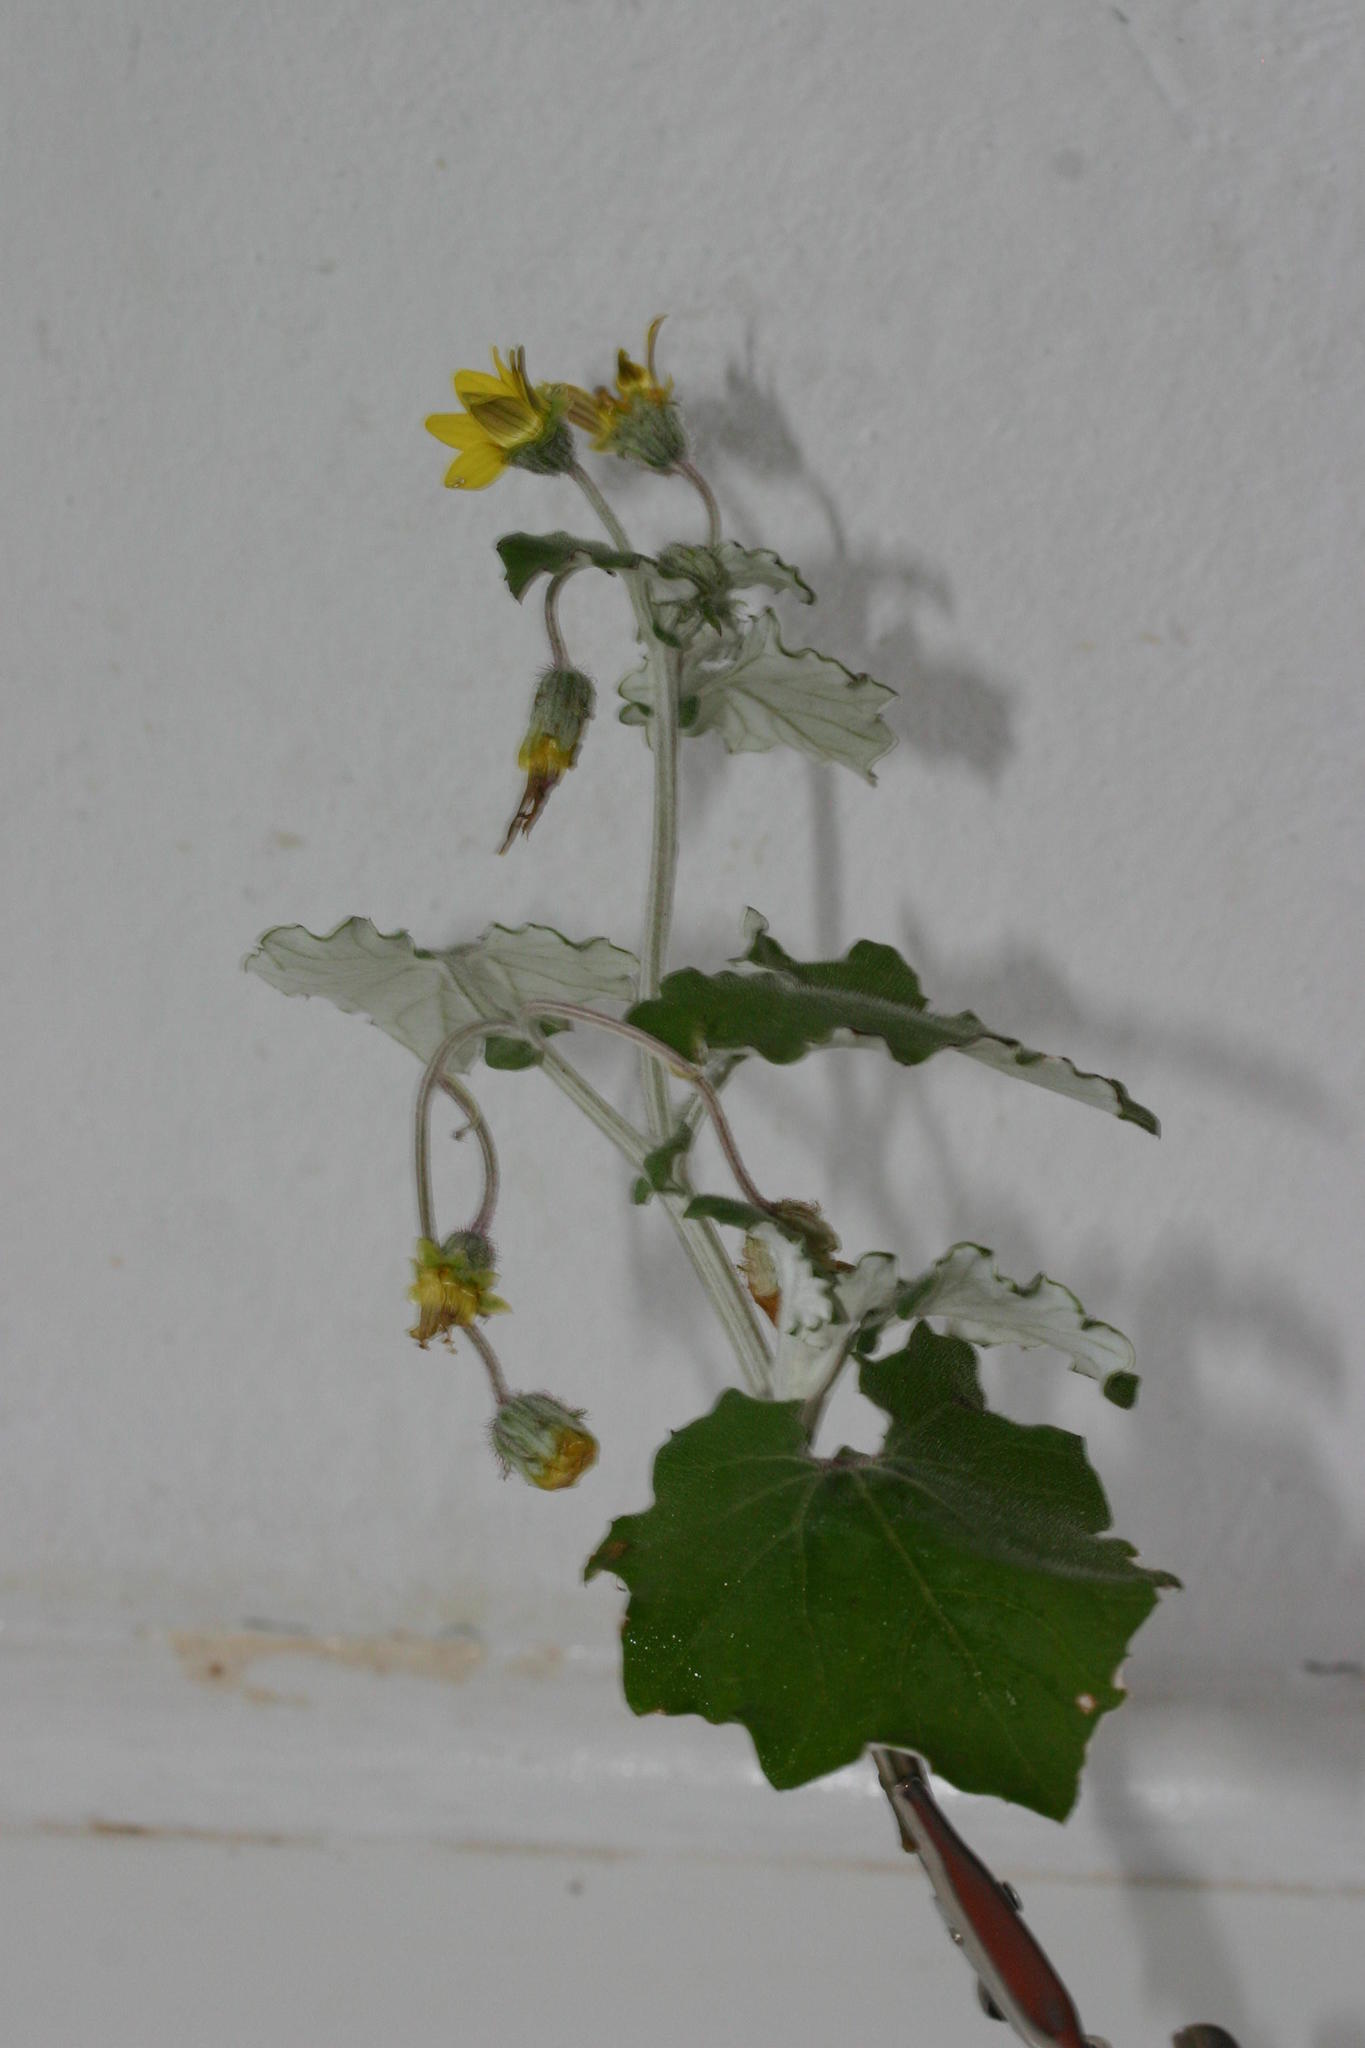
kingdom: Plantae
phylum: Tracheophyta
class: Magnoliopsida
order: Asterales
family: Asteraceae
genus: Arctotis
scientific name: Arctotis perfoliata
